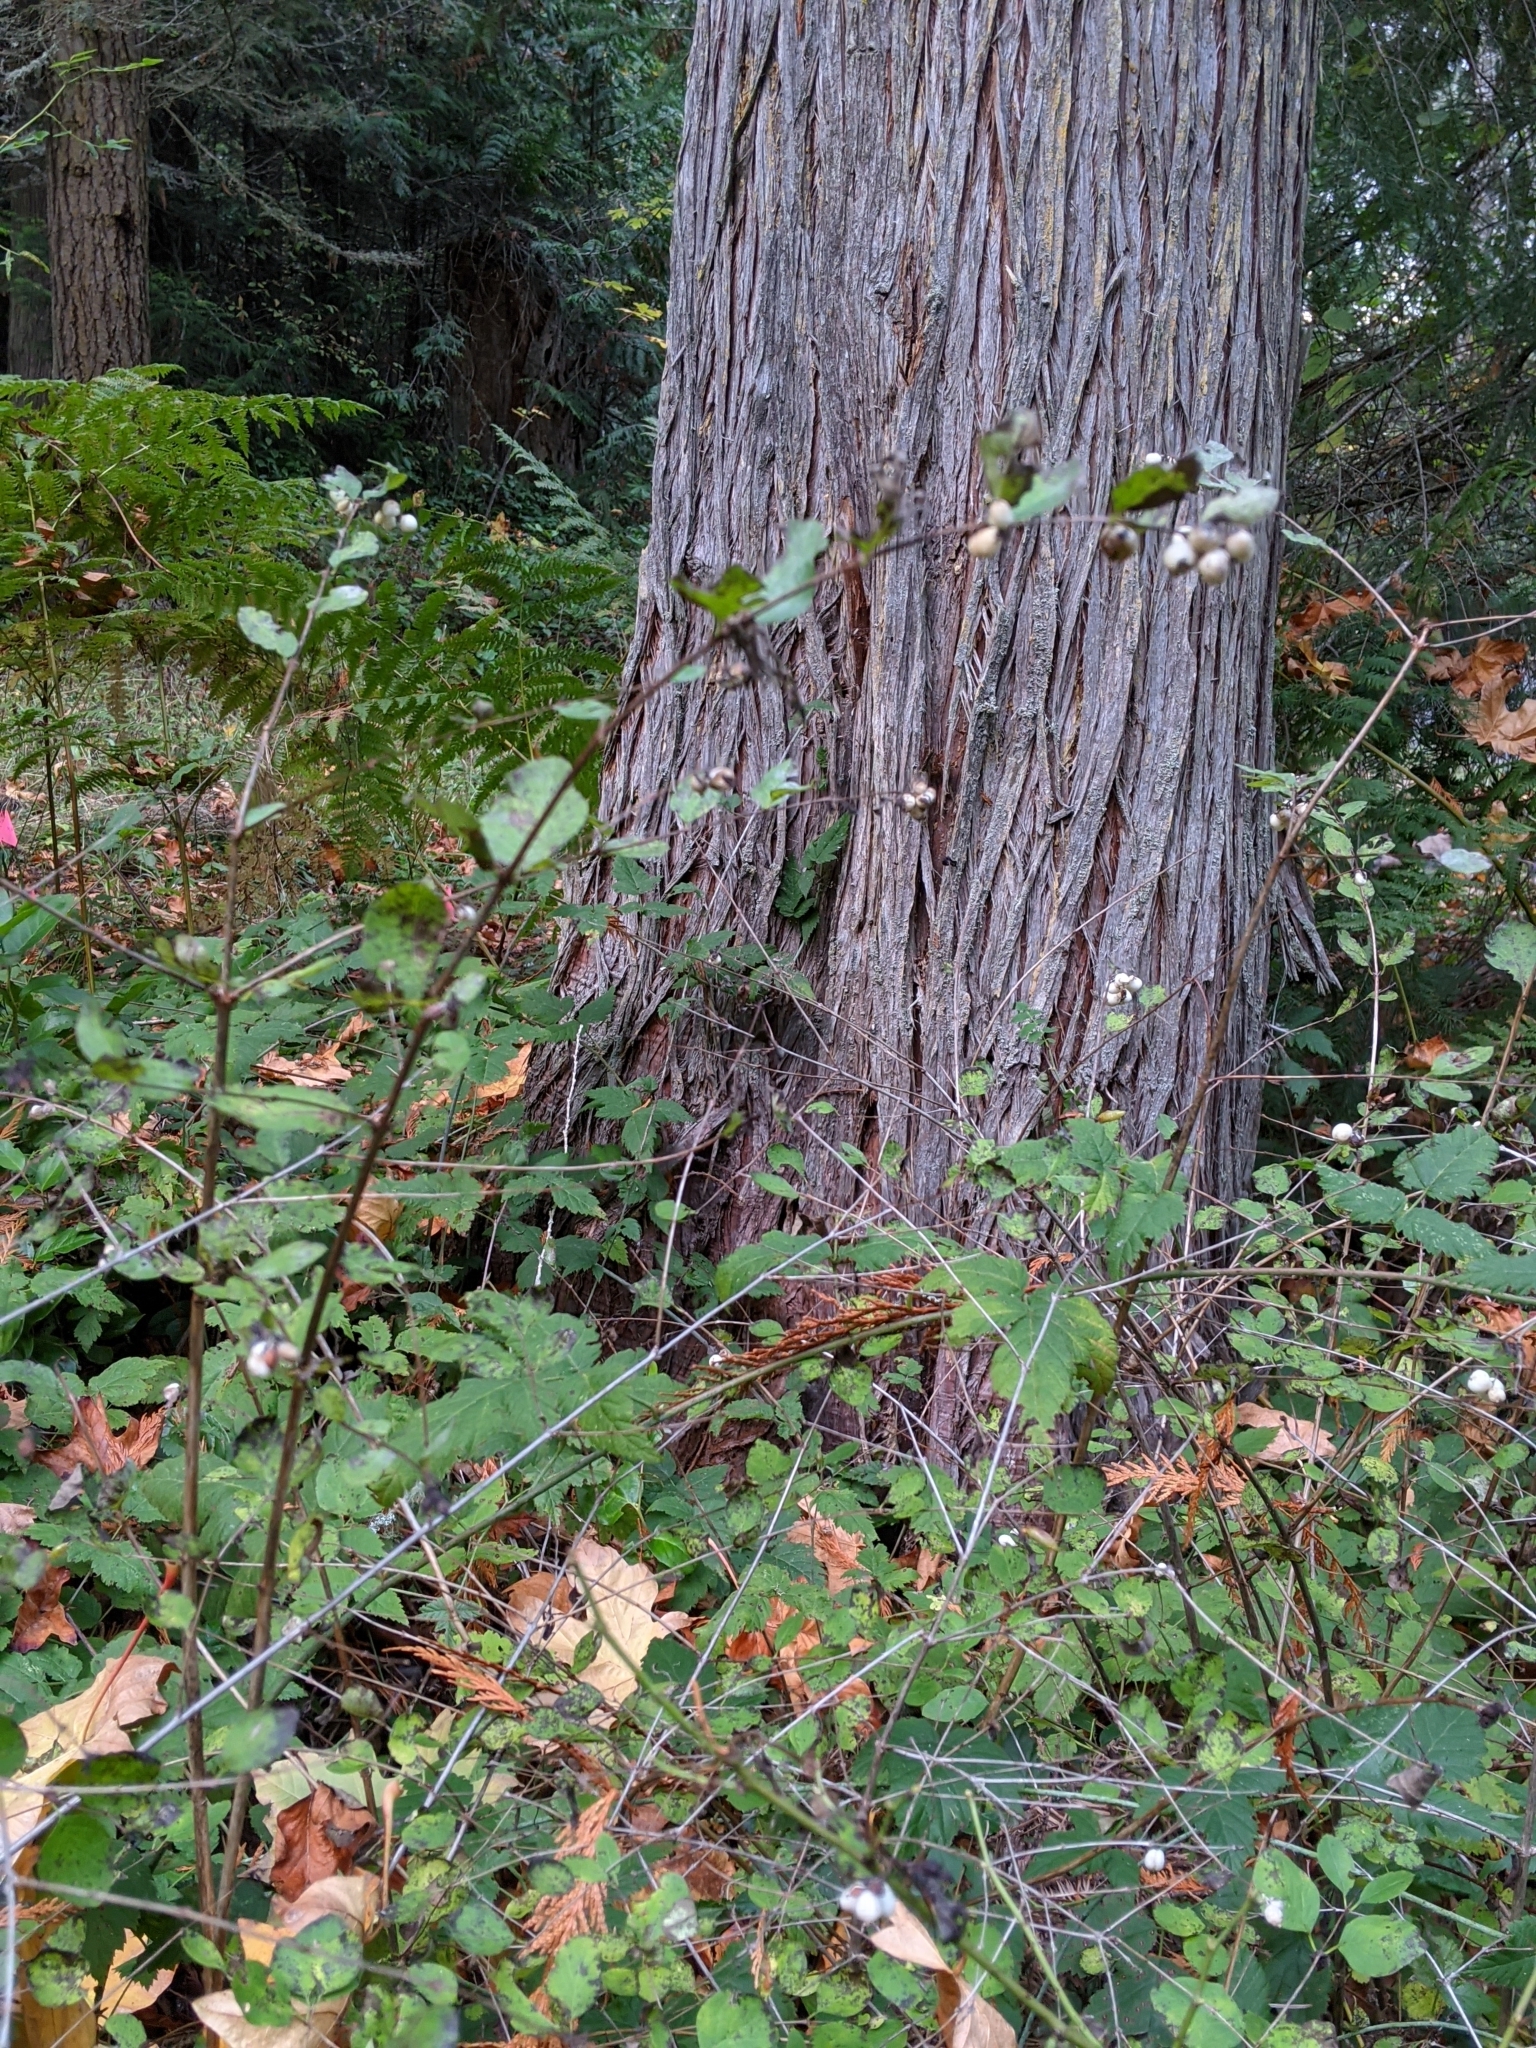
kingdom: Plantae
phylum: Tracheophyta
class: Magnoliopsida
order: Dipsacales
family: Caprifoliaceae
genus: Symphoricarpos
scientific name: Symphoricarpos albus
